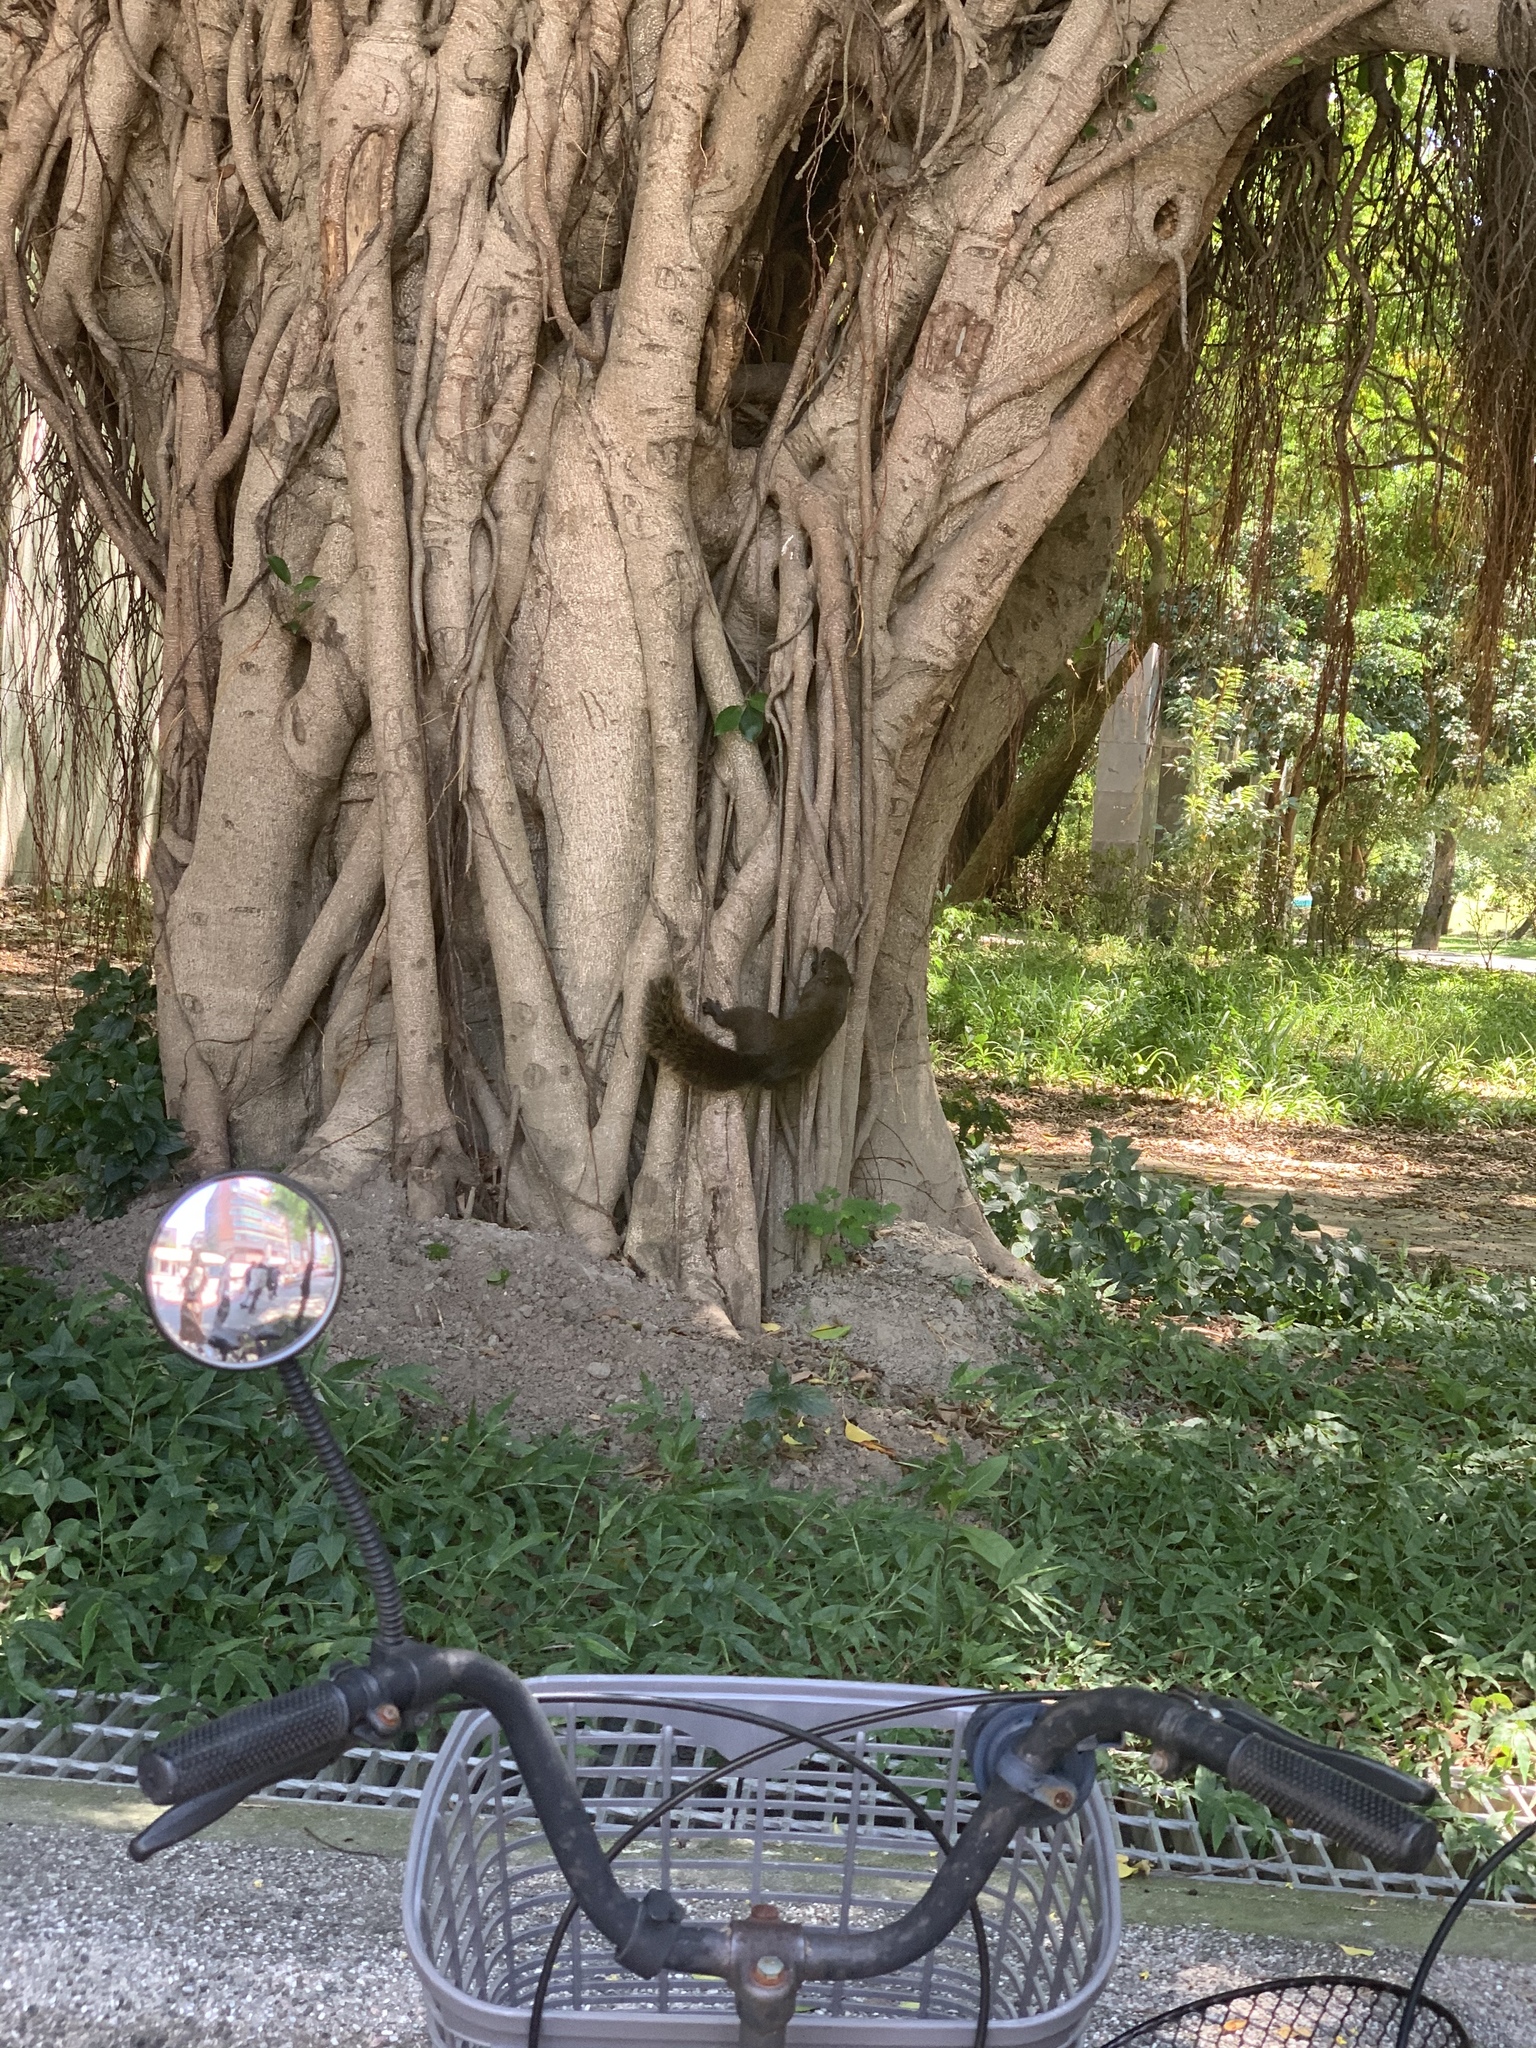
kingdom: Animalia
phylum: Chordata
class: Mammalia
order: Rodentia
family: Sciuridae
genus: Callosciurus
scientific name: Callosciurus erythraeus
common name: Pallas's squirrel
